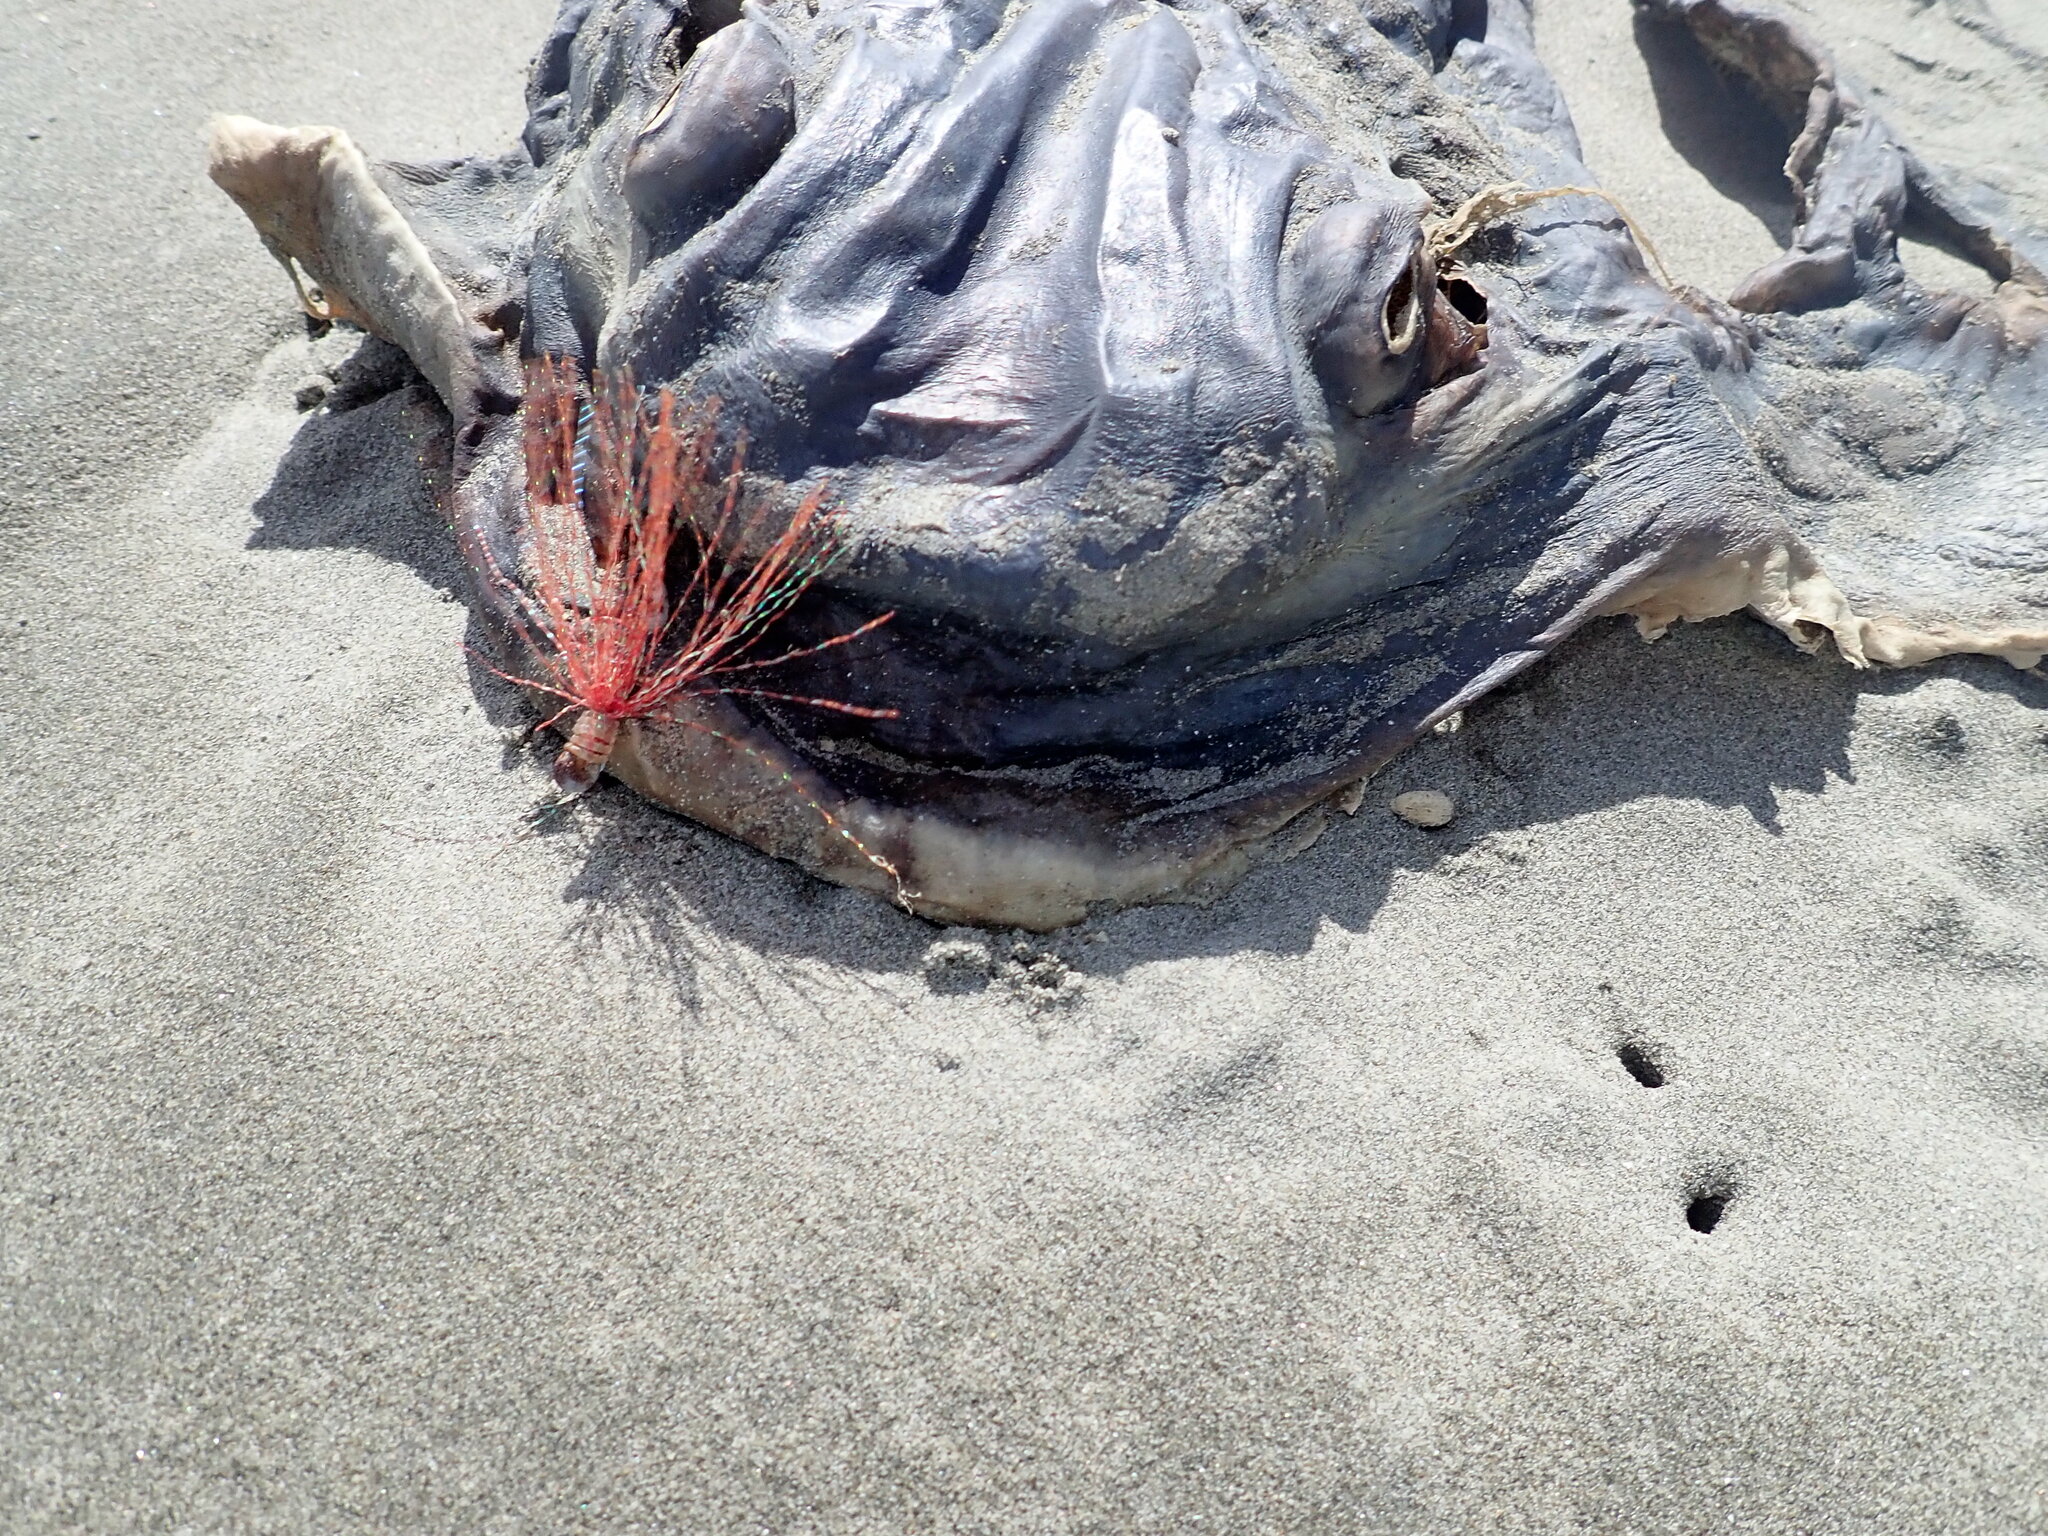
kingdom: Animalia
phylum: Chordata
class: Elasmobranchii
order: Myliobatiformes
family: Myliobatidae
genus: Myliobatis
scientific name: Myliobatis tenuicaudatus
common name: Eagle ray
